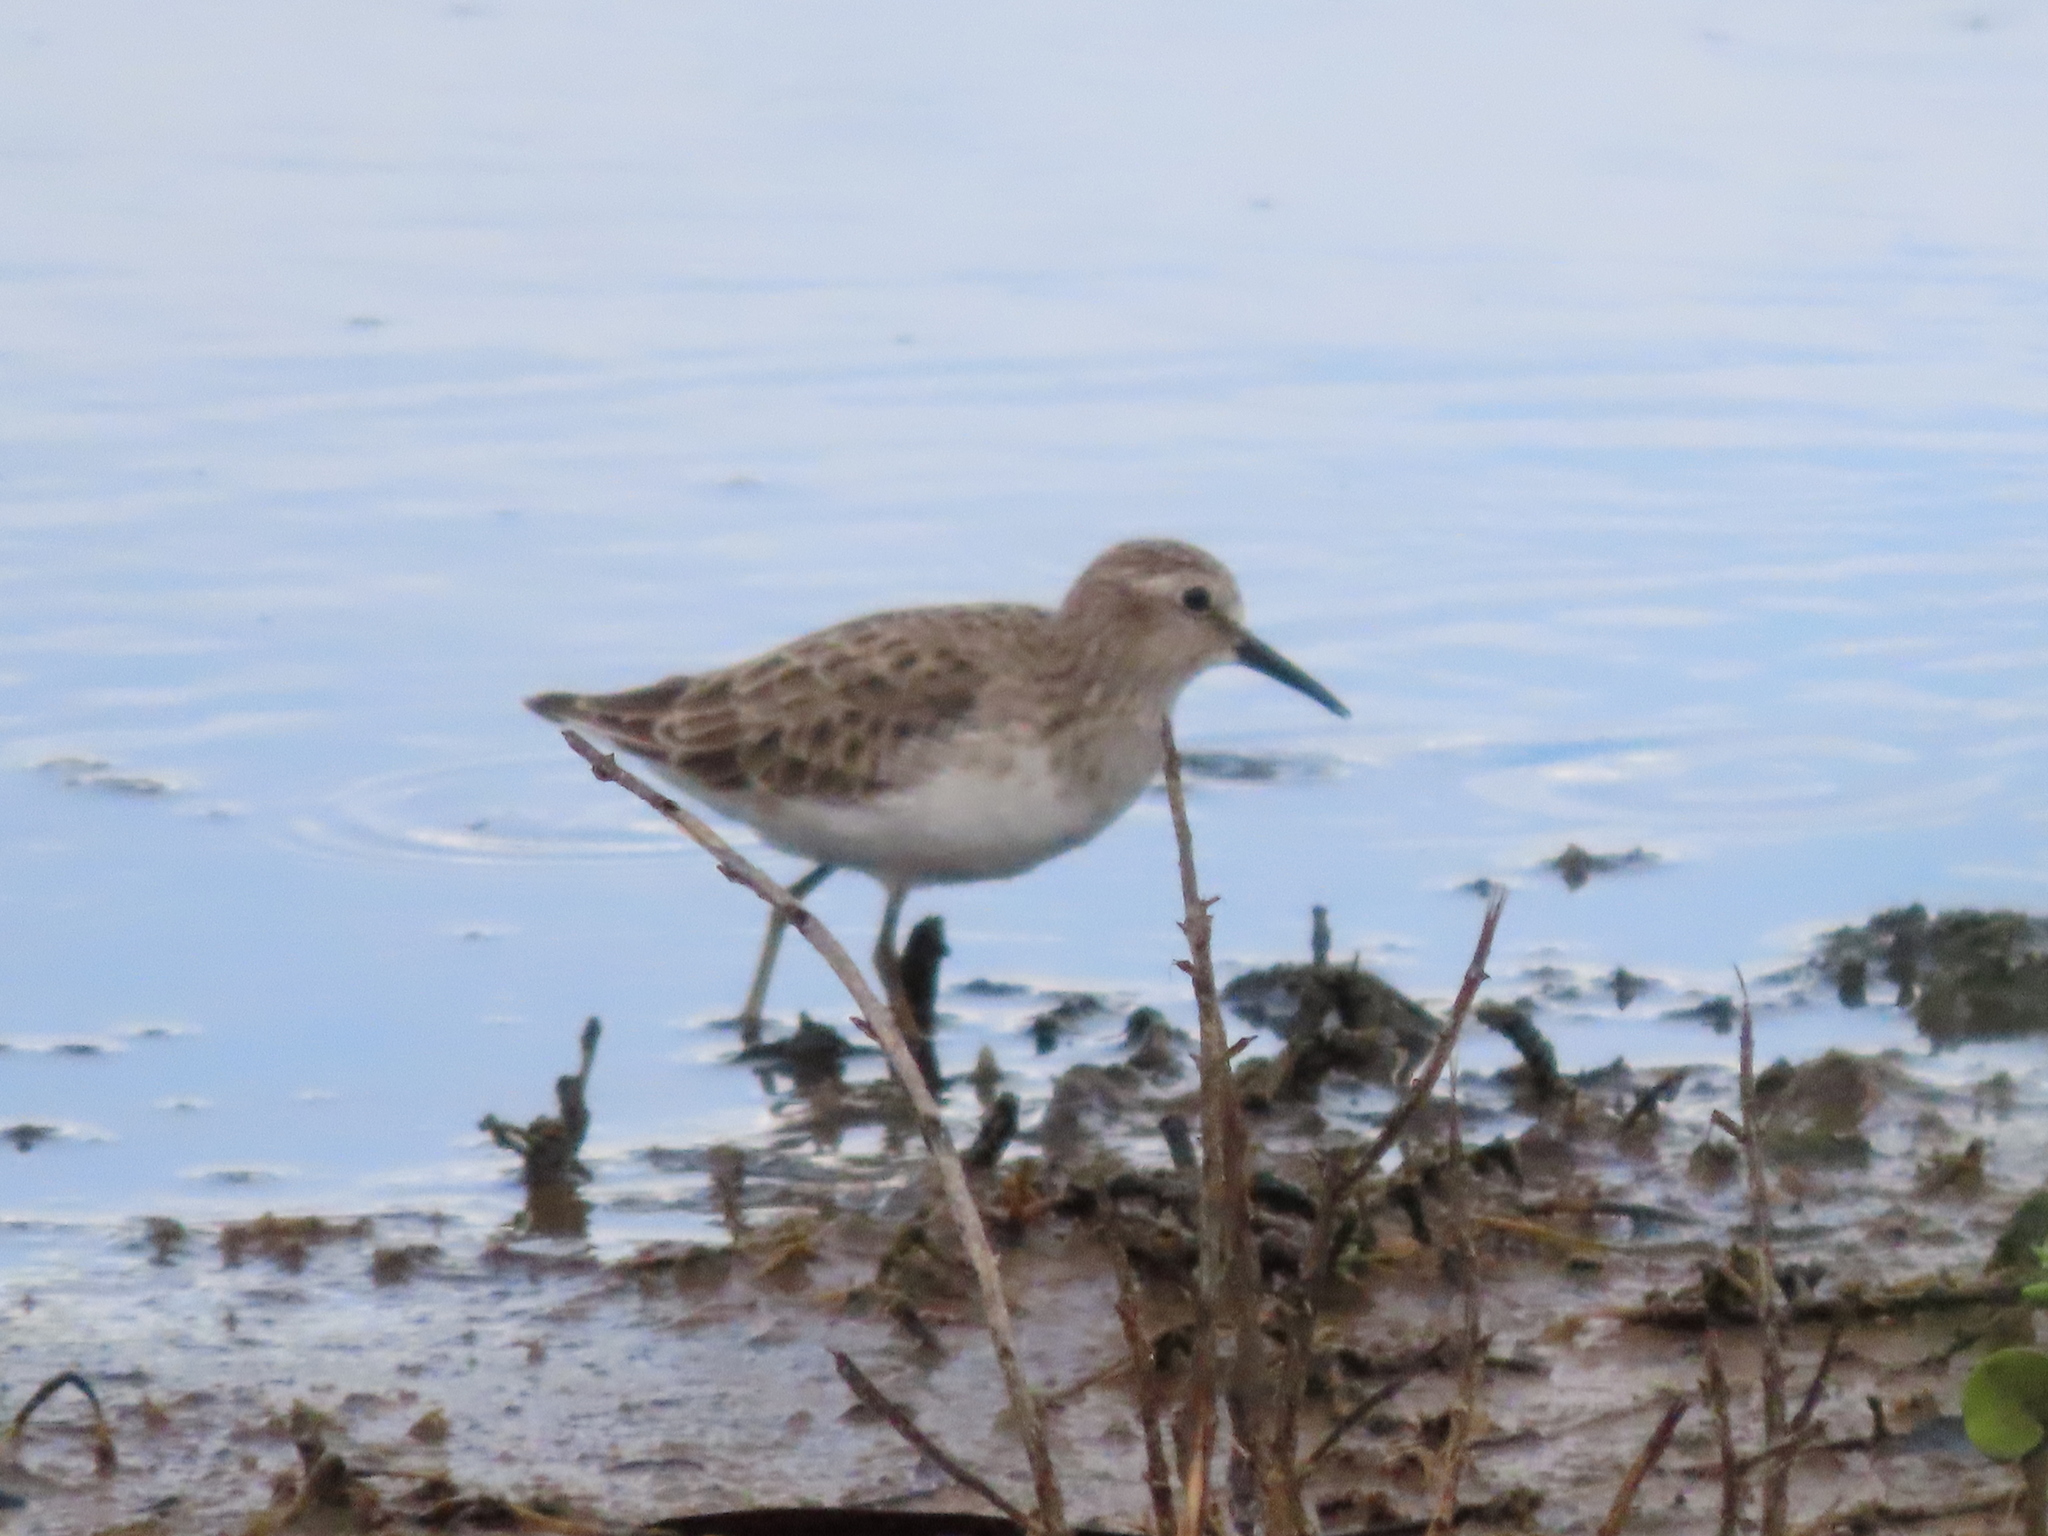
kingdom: Animalia
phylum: Chordata
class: Aves
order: Charadriiformes
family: Scolopacidae
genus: Calidris
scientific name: Calidris minutilla
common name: Least sandpiper
